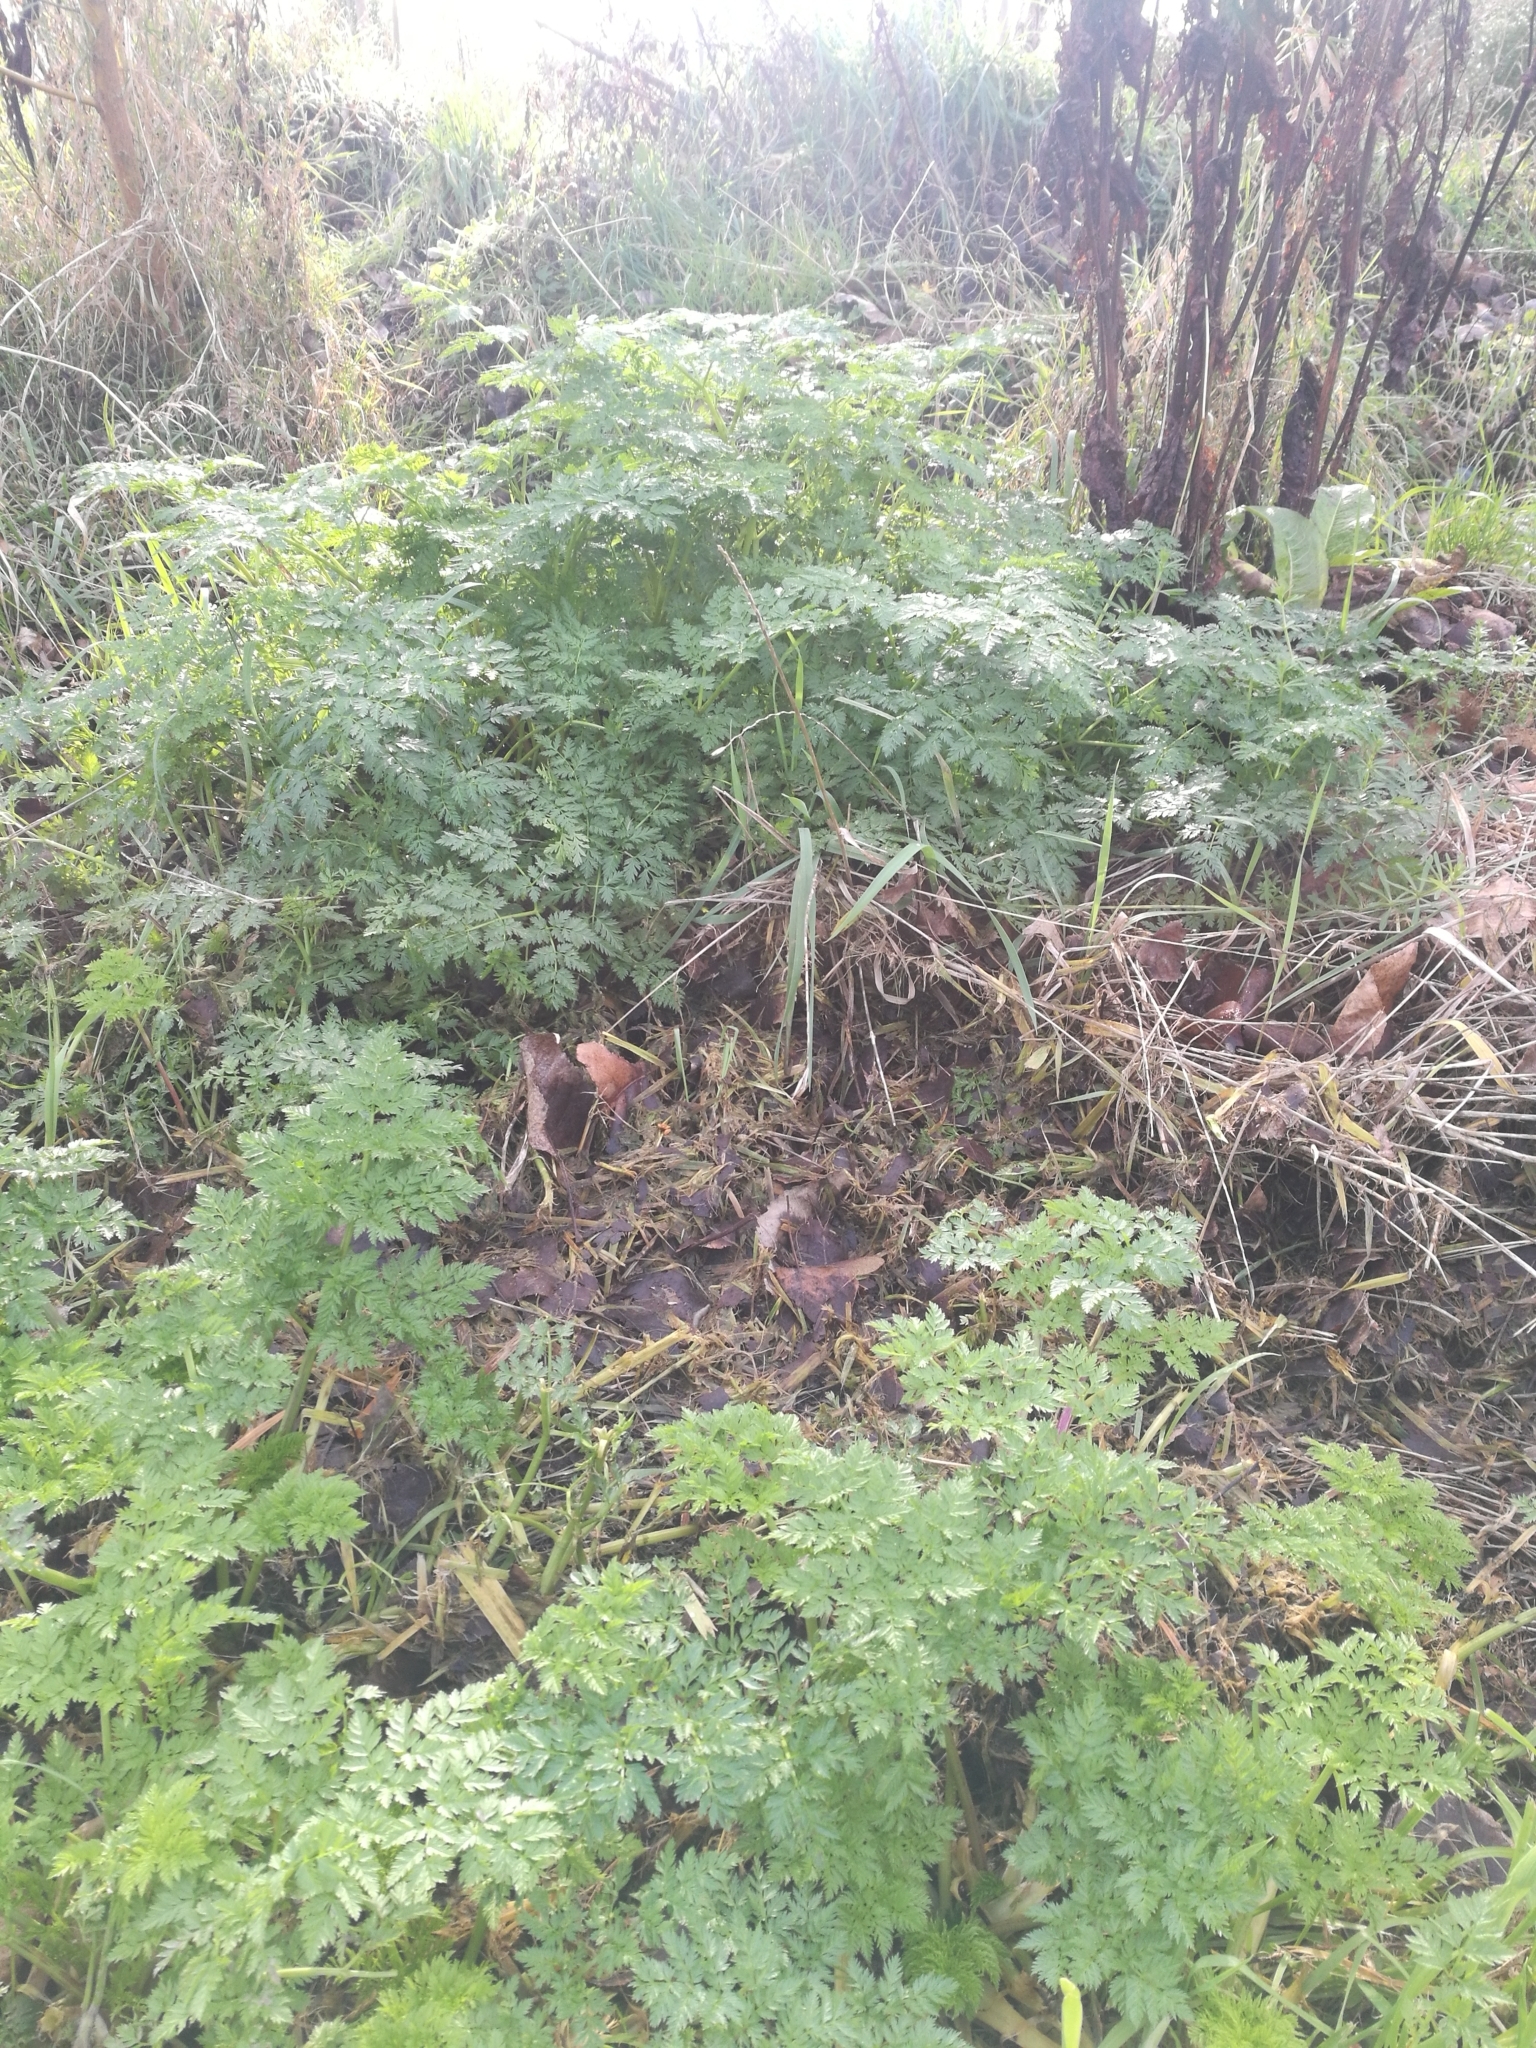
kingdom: Plantae
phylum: Tracheophyta
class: Magnoliopsida
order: Apiales
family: Apiaceae
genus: Conium
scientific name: Conium maculatum
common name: Hemlock
